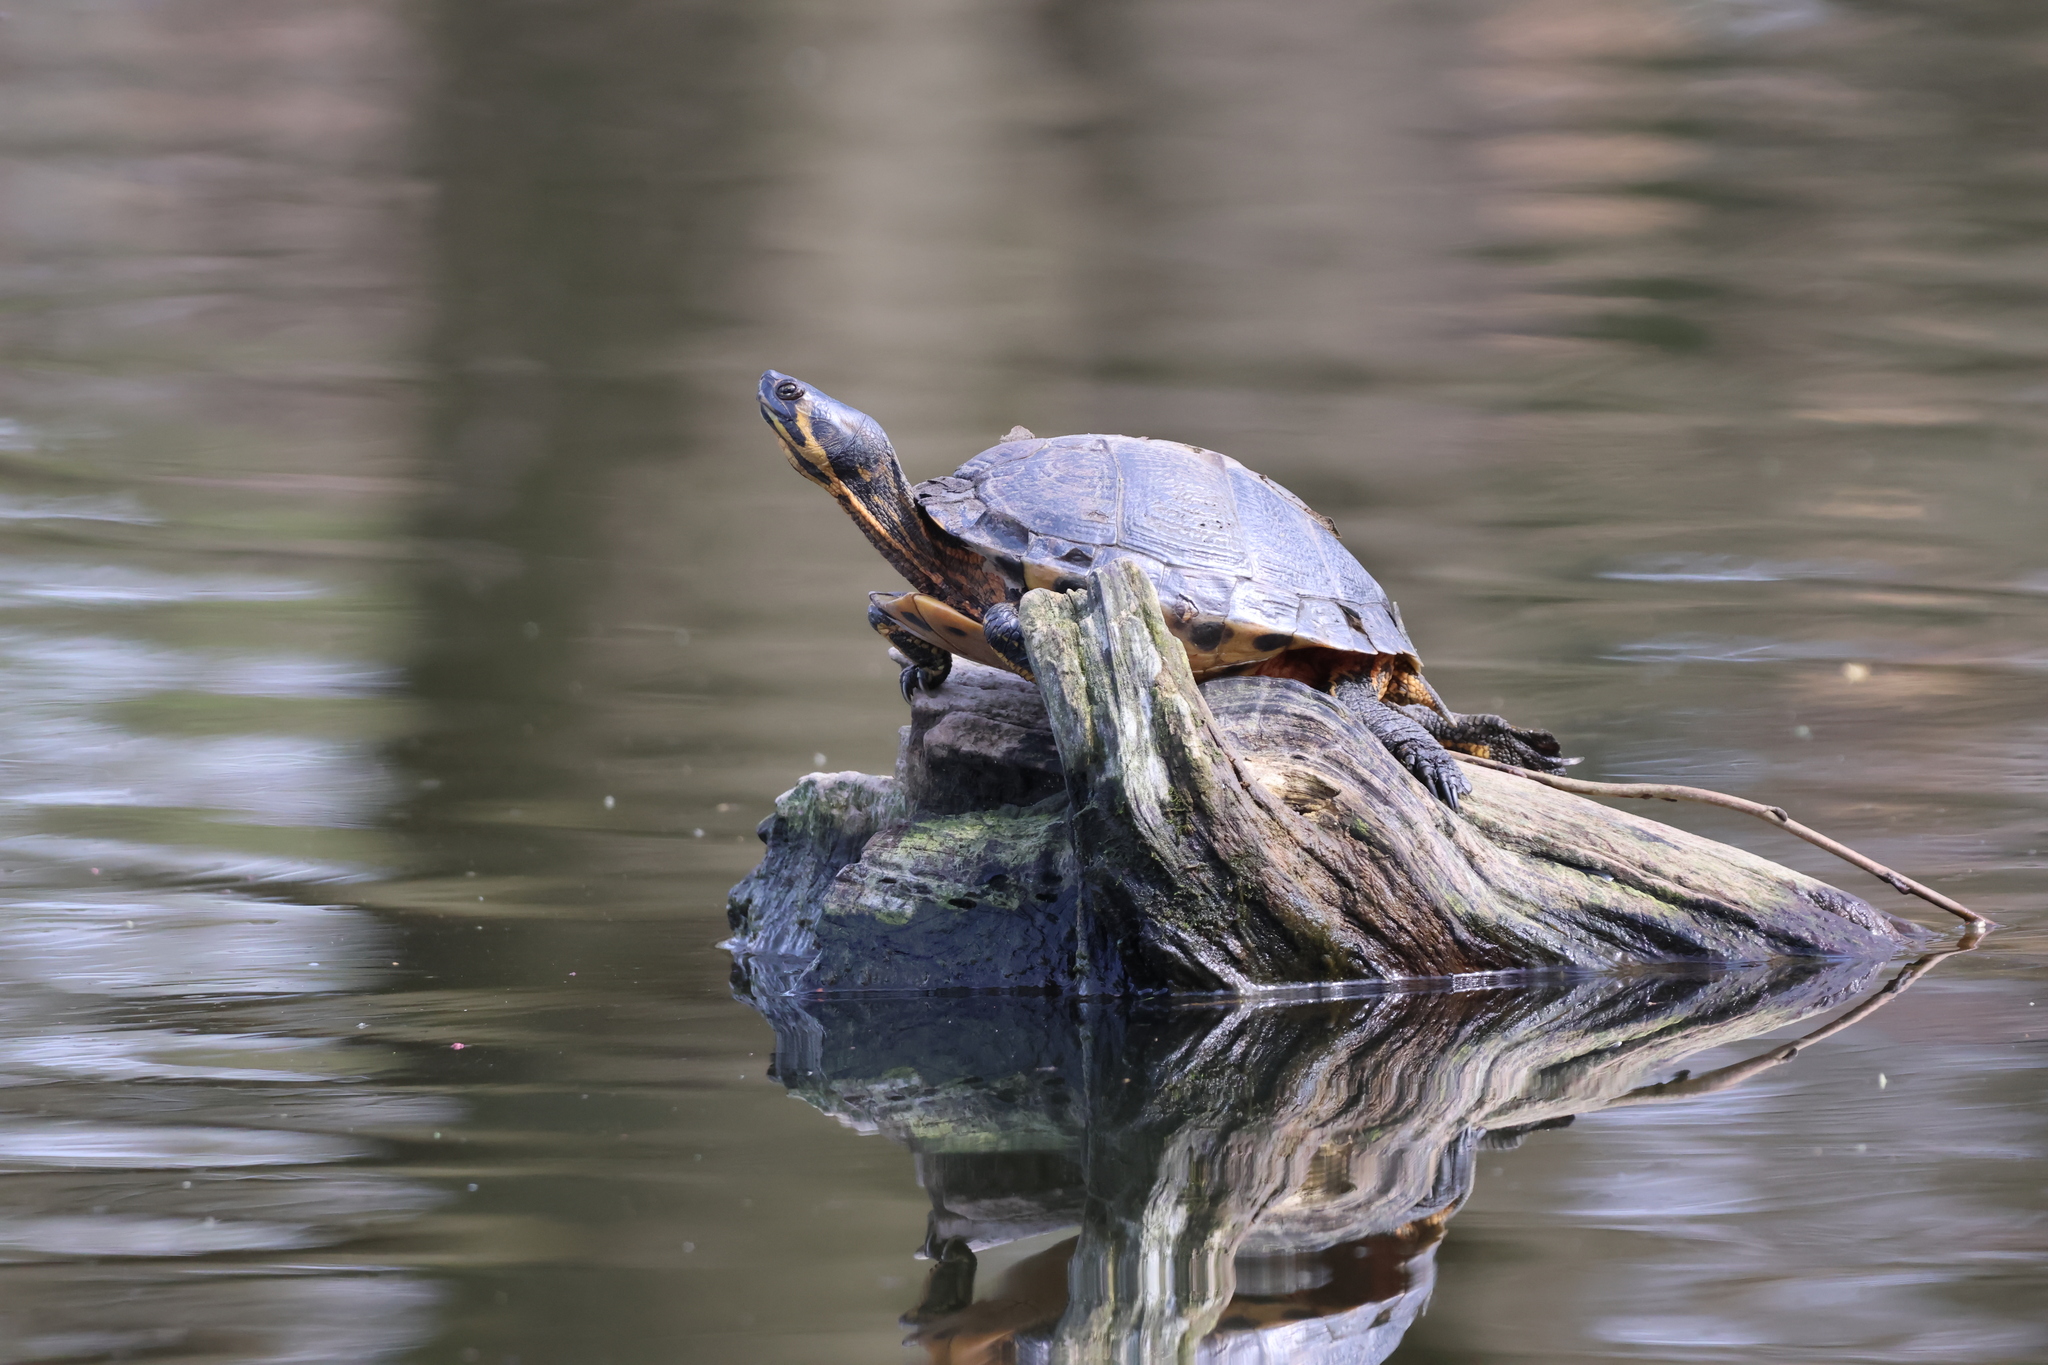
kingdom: Animalia
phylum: Chordata
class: Testudines
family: Emydidae
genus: Trachemys
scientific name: Trachemys scripta
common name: Slider
